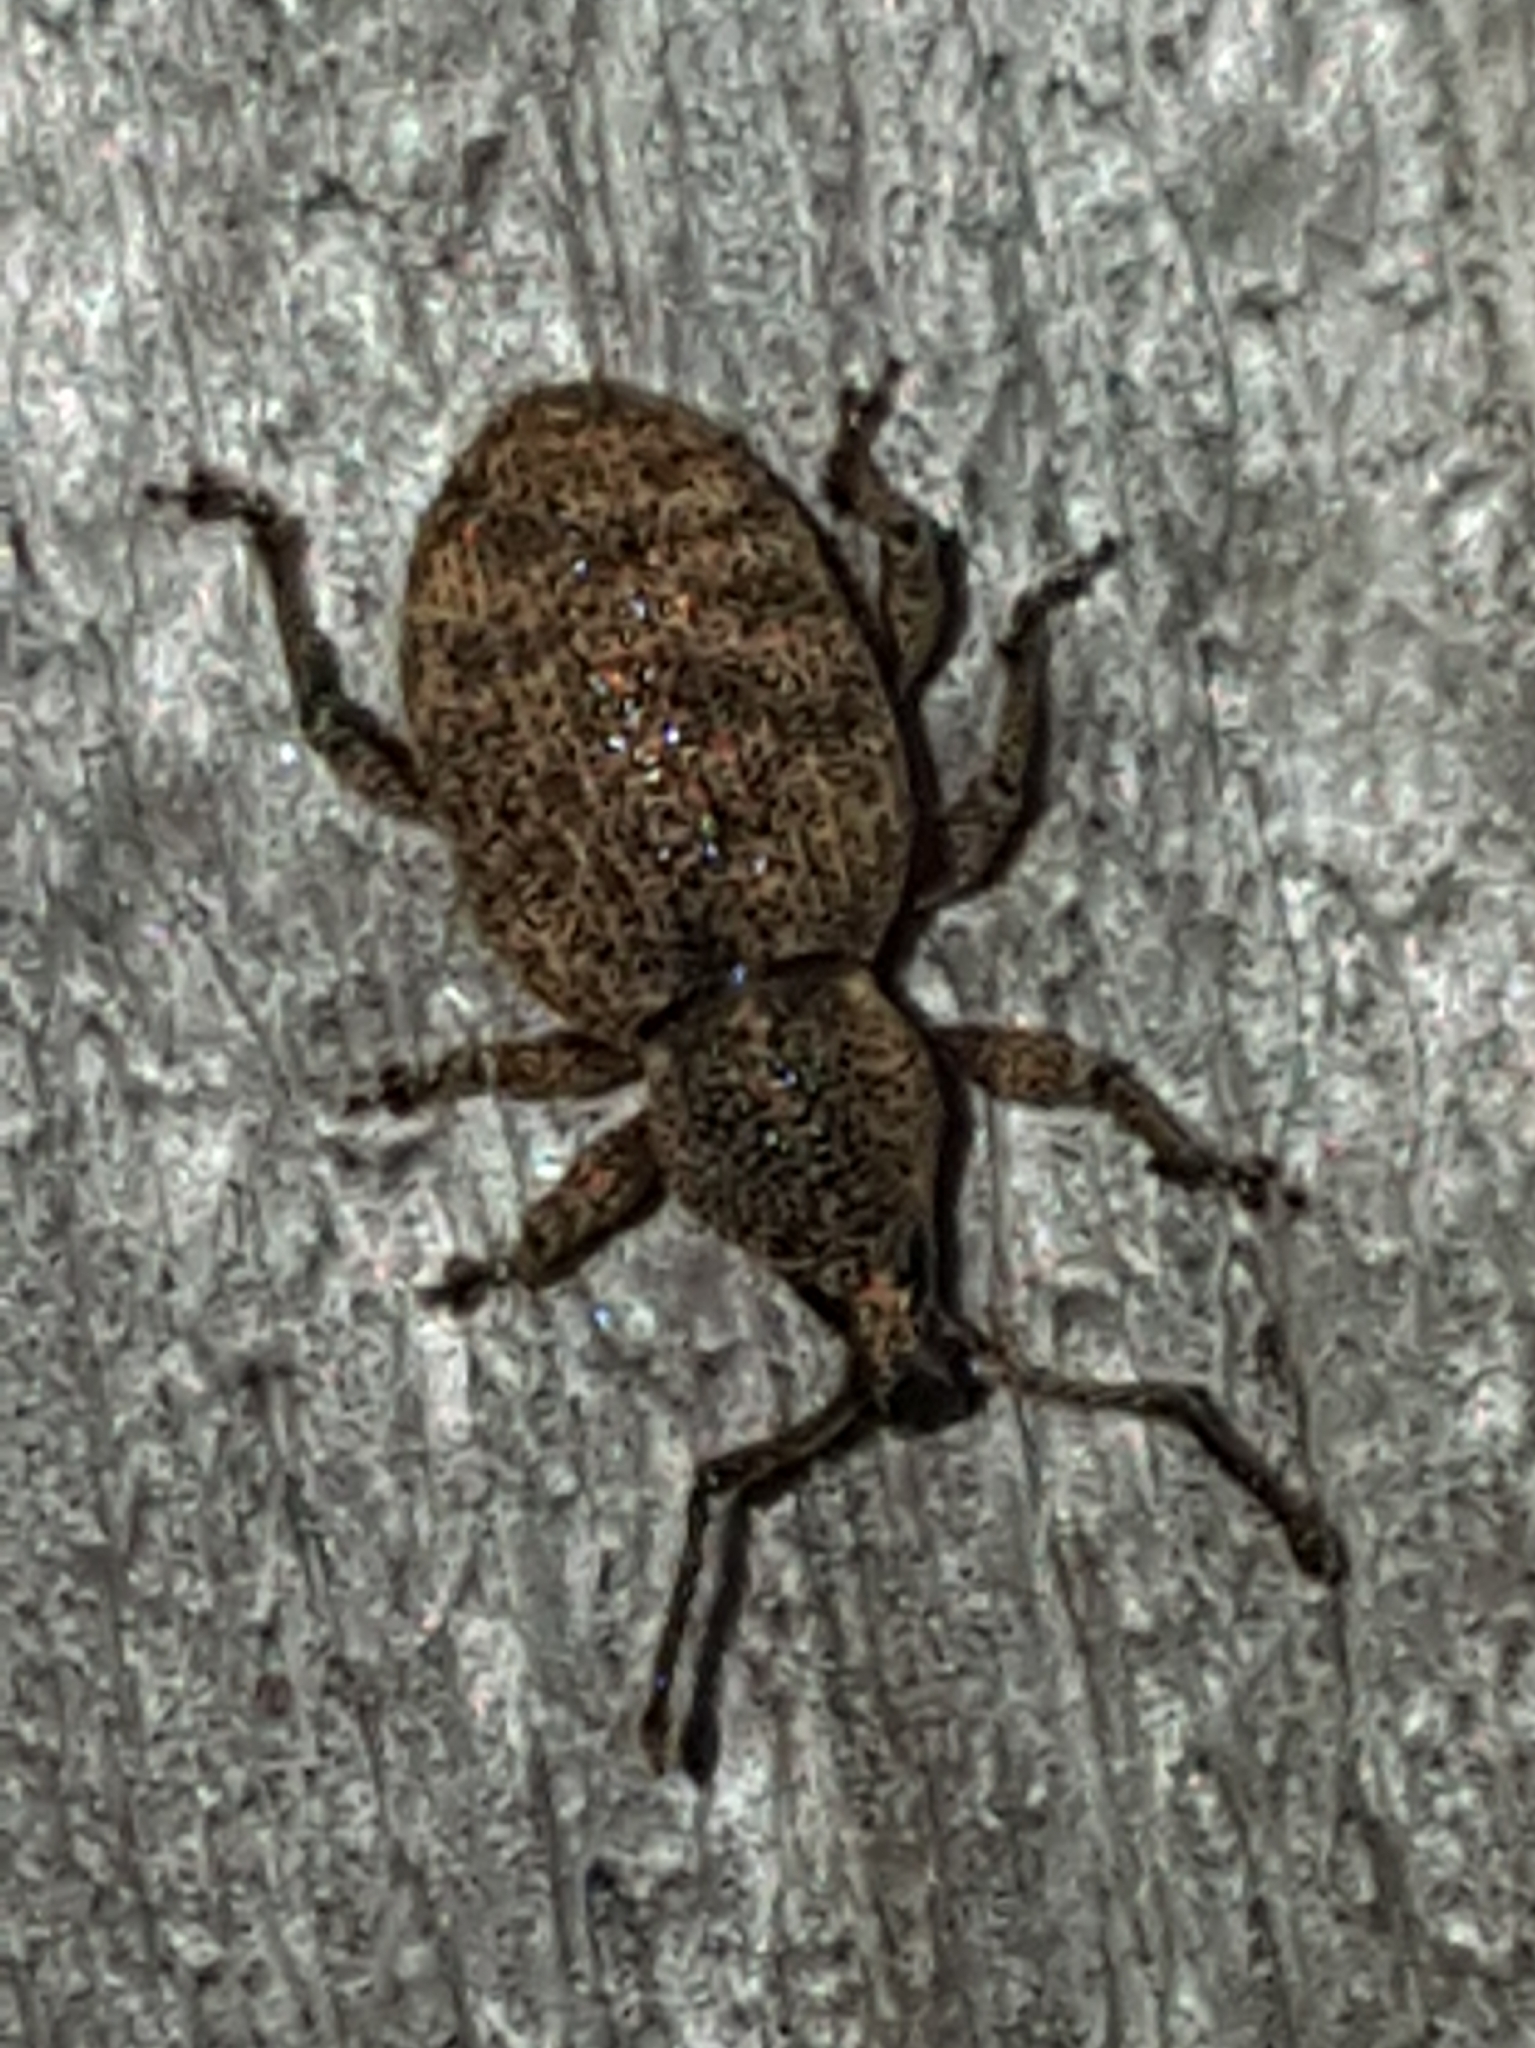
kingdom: Animalia
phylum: Arthropoda
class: Insecta
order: Coleoptera
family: Curculionidae
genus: Otiorhynchus
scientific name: Otiorhynchus singularis
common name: Clay-coloured weevil
